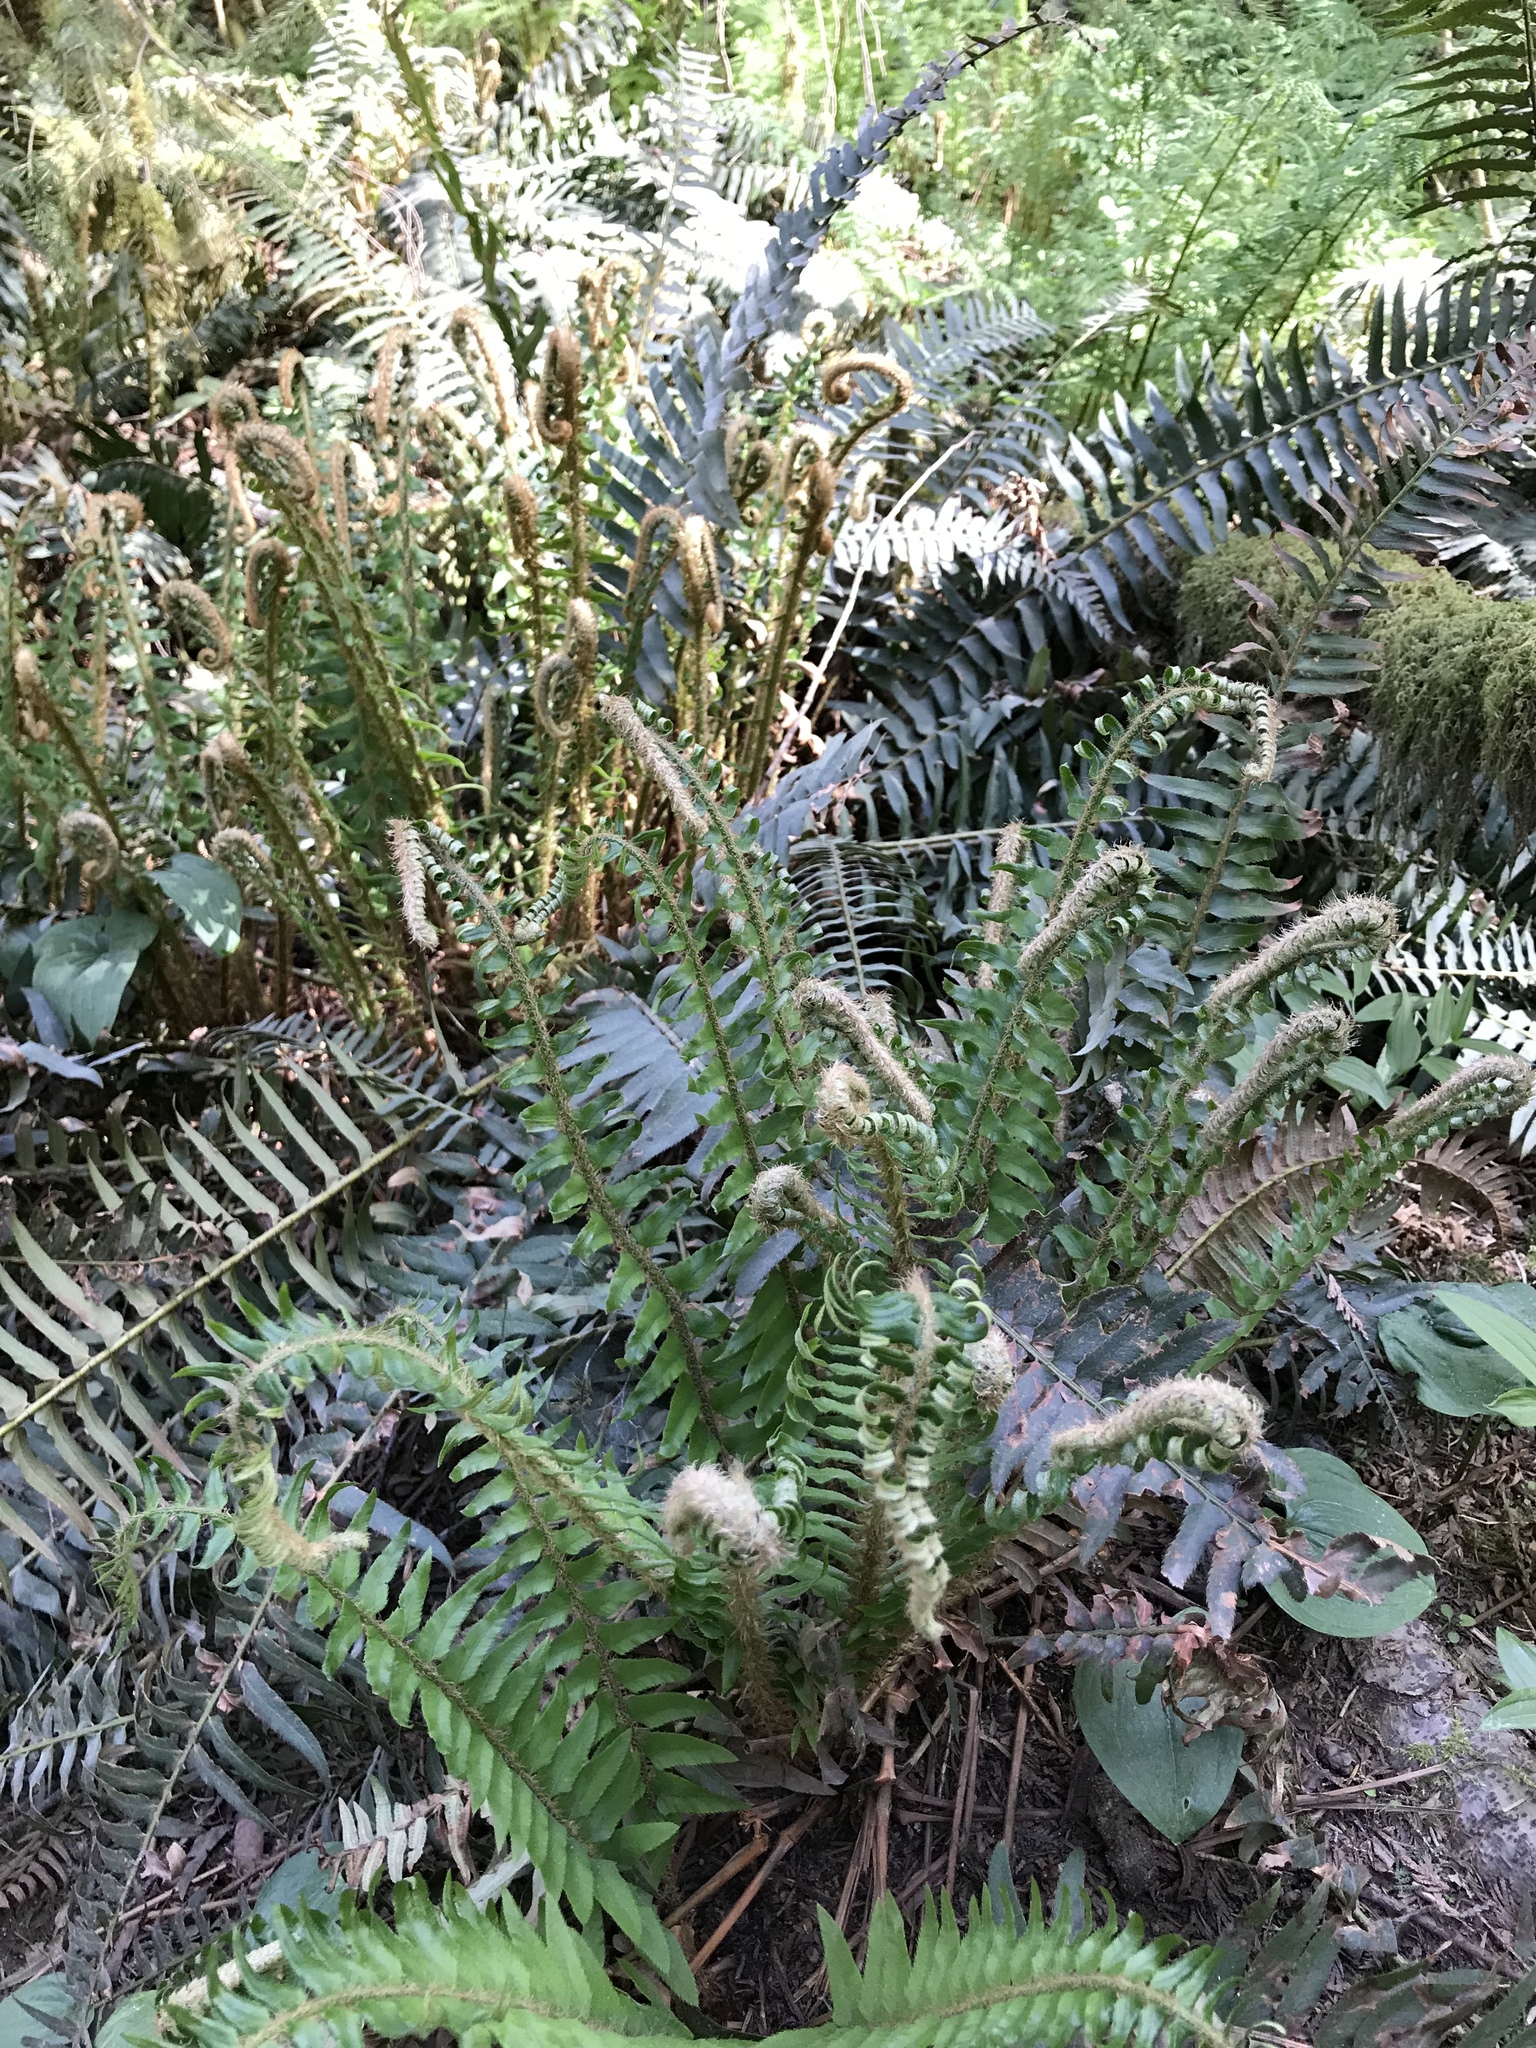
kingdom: Plantae
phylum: Tracheophyta
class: Polypodiopsida
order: Polypodiales
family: Dryopteridaceae
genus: Polystichum
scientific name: Polystichum munitum
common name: Western sword-fern
